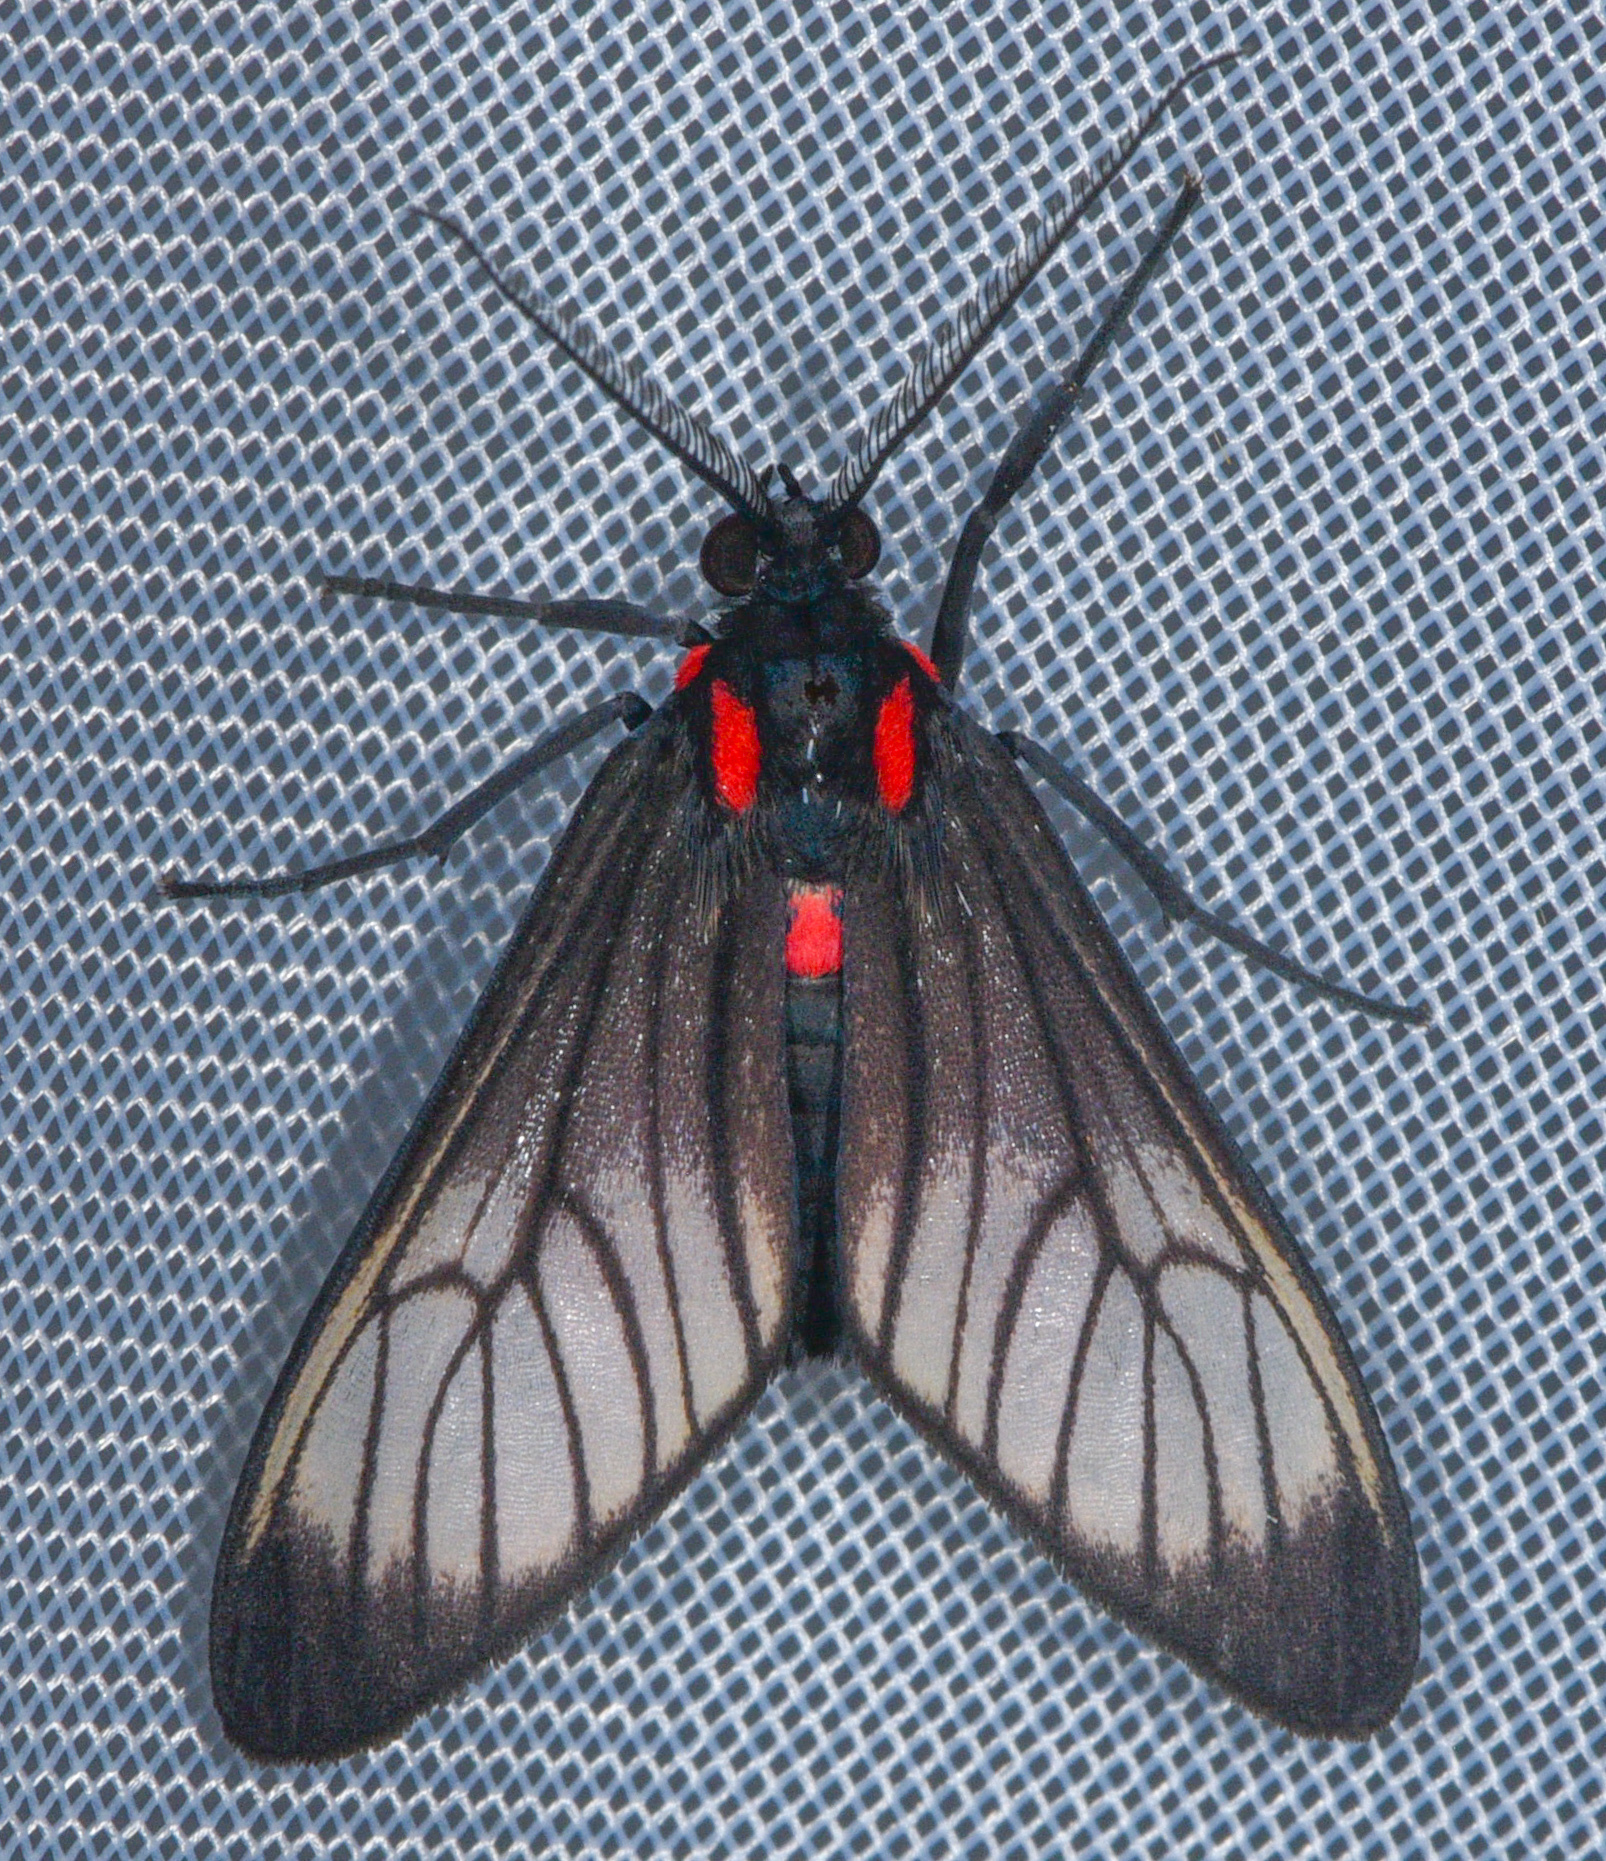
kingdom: Animalia
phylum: Arthropoda
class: Insecta
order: Lepidoptera
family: Erebidae
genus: Hyperphara
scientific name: Hyperphara clusia
